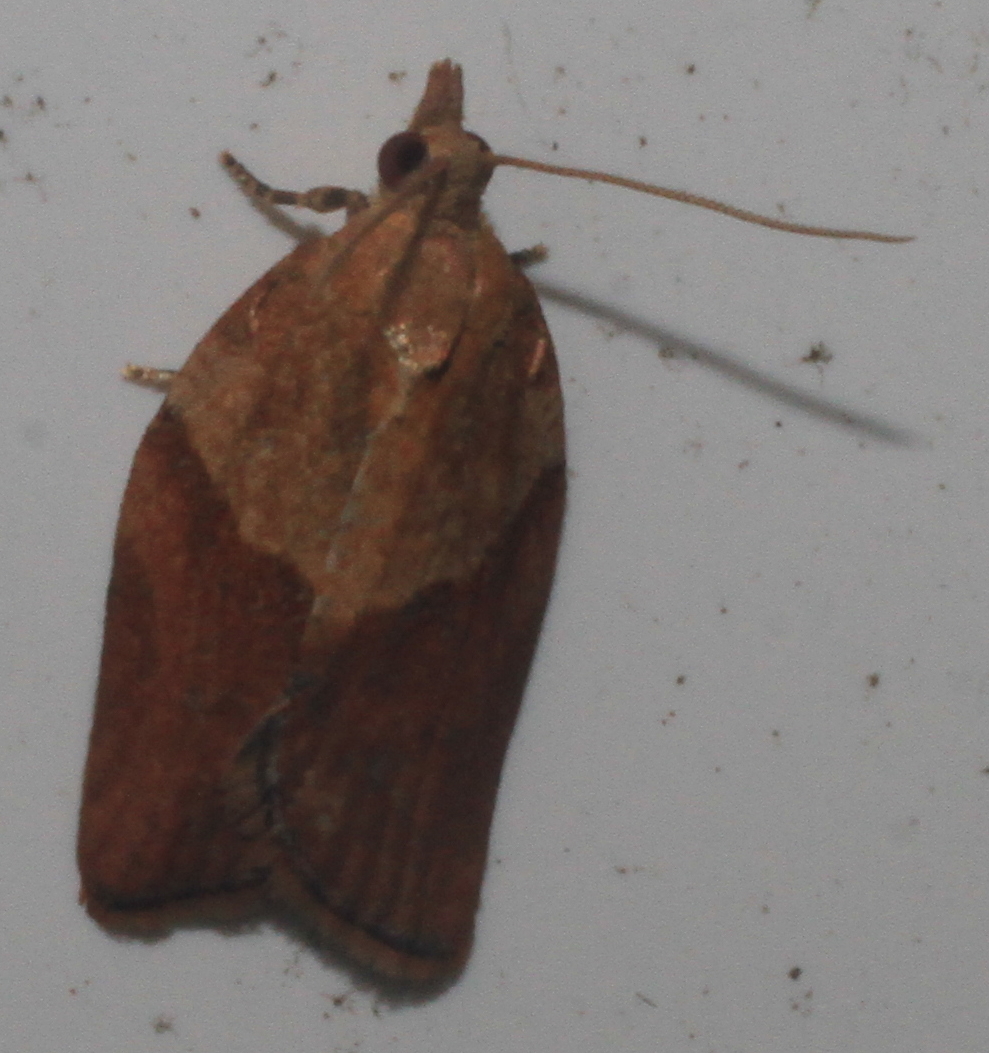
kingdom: Animalia
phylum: Arthropoda
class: Insecta
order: Lepidoptera
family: Tortricidae
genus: Epiphyas
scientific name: Epiphyas postvittana
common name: Light brown apple moth
